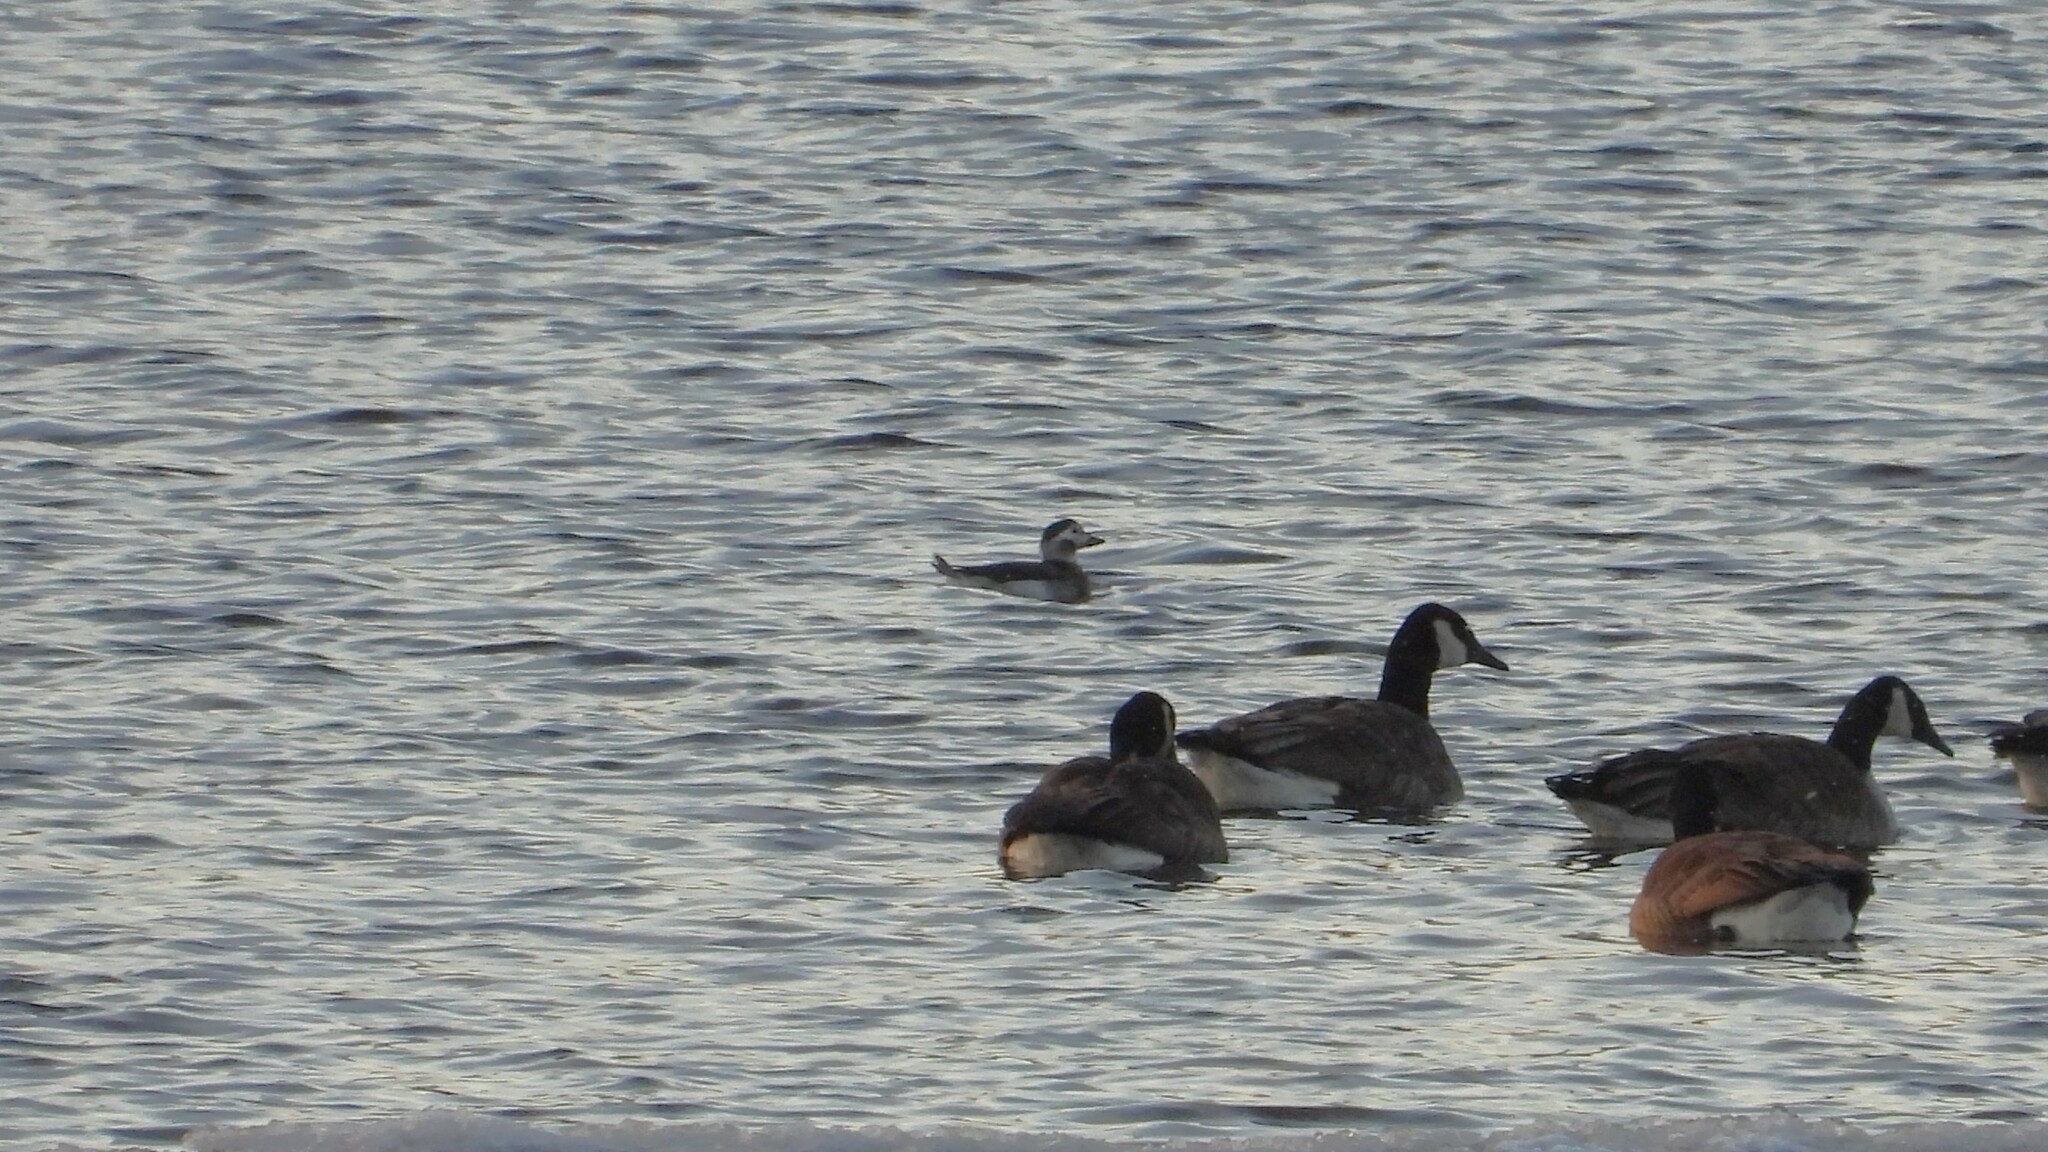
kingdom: Animalia
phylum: Chordata
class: Aves
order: Anseriformes
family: Anatidae
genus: Clangula
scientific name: Clangula hyemalis
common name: Long-tailed duck
